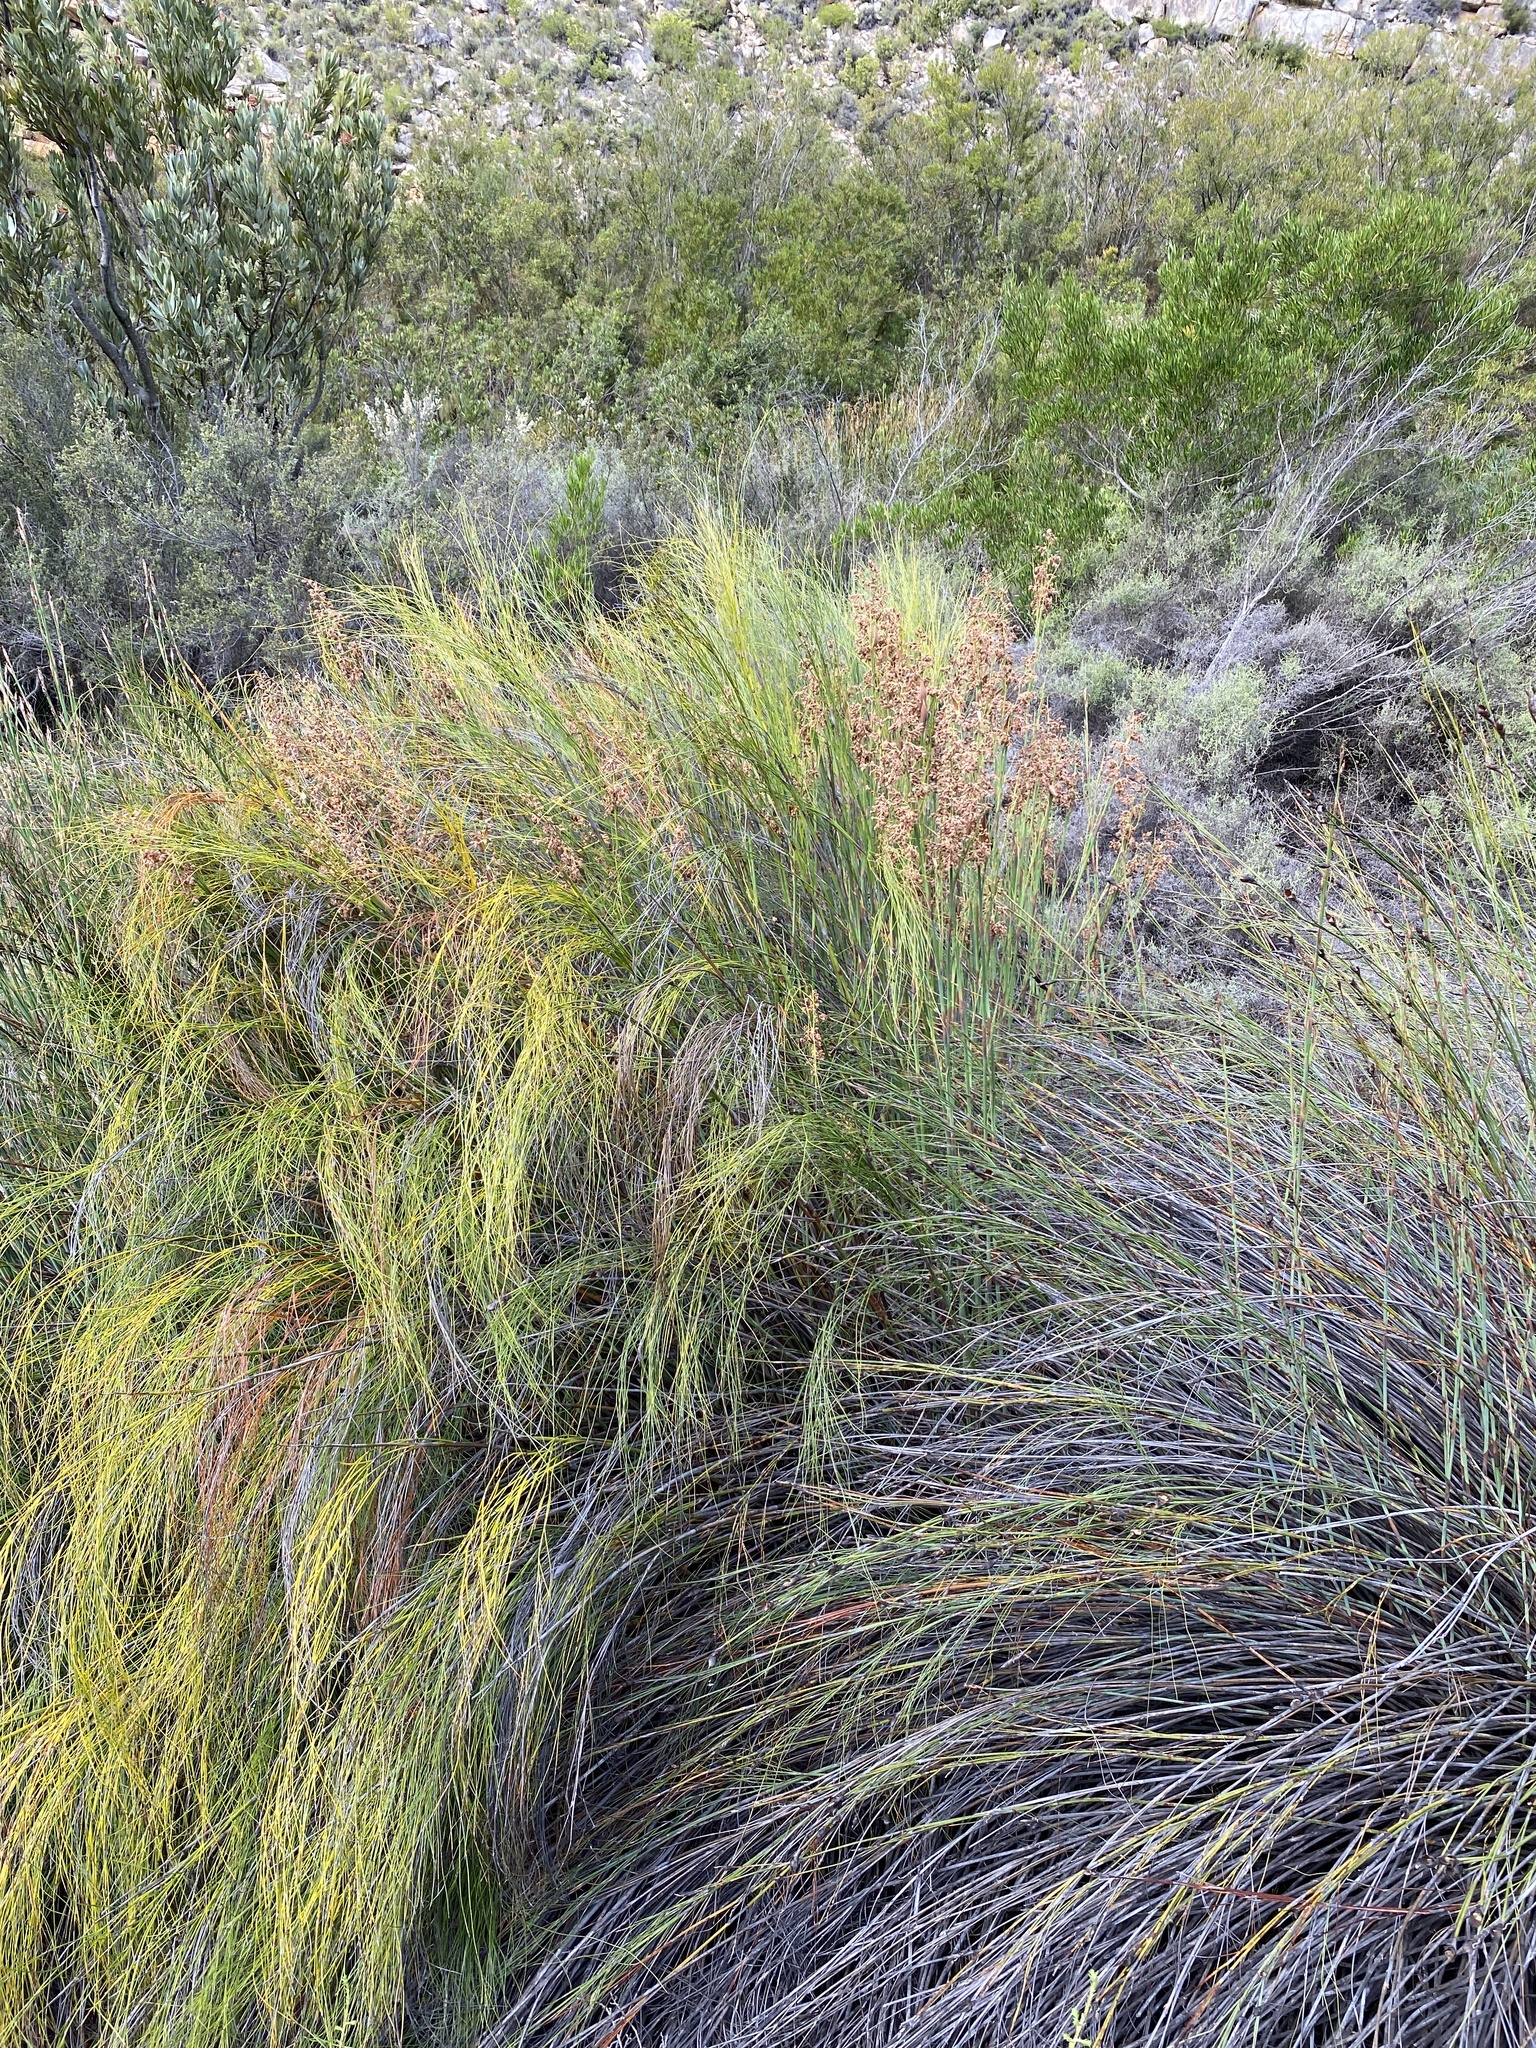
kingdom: Plantae
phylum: Tracheophyta
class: Liliopsida
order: Poales
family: Restionaceae
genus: Cannomois
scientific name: Cannomois virgata
